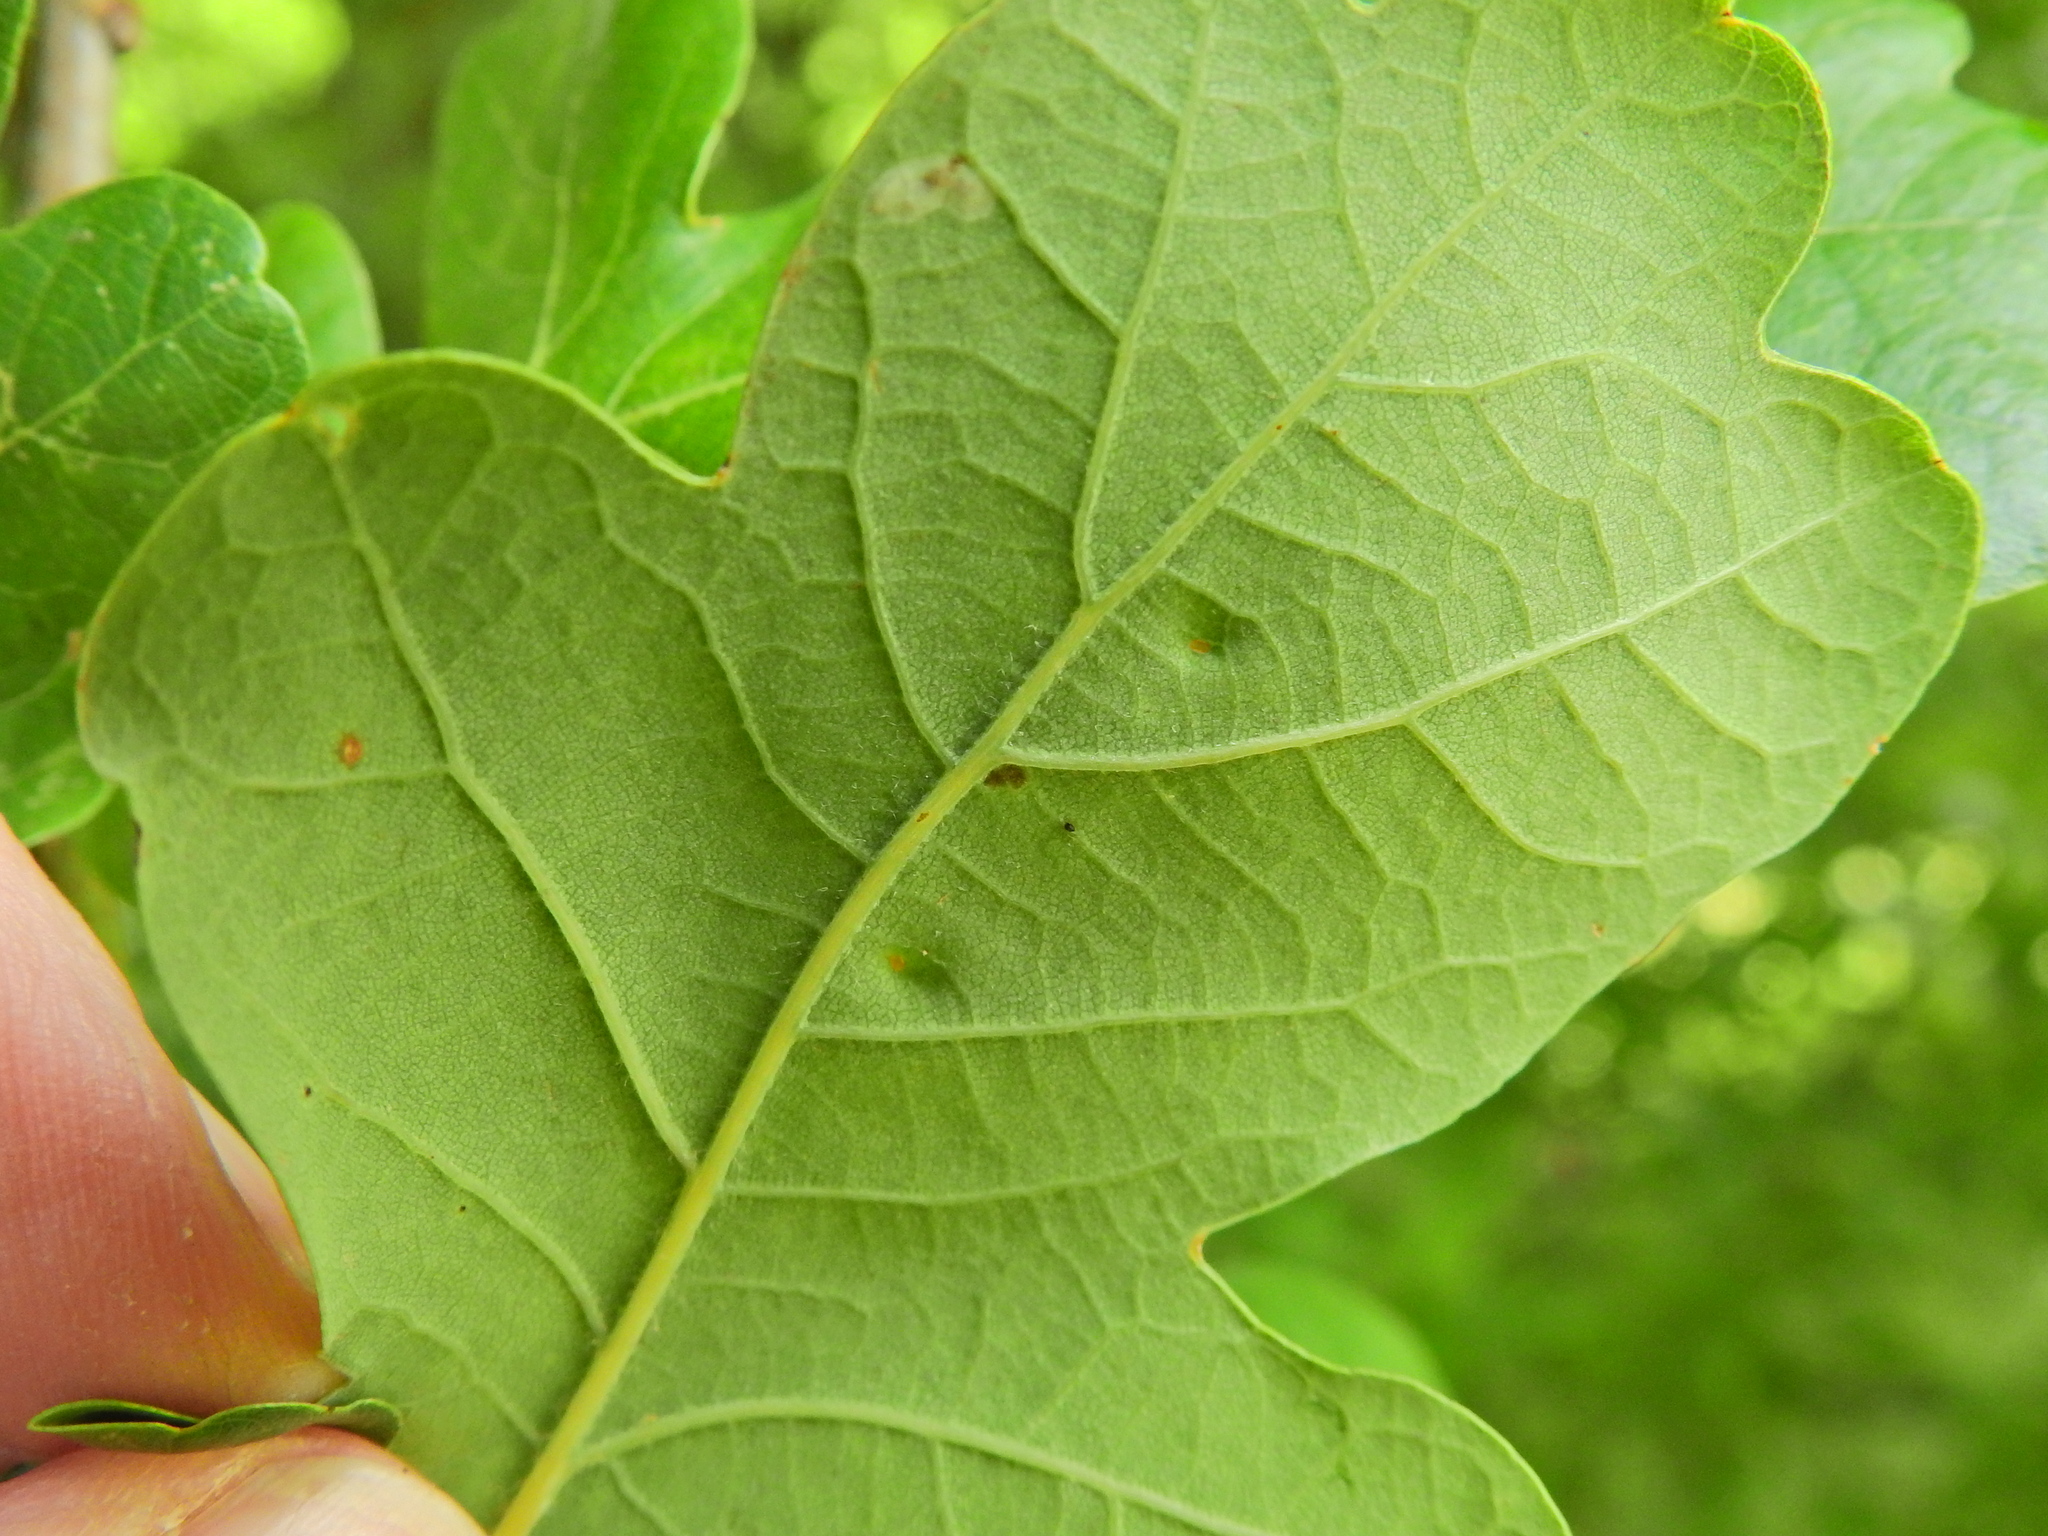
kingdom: Animalia
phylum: Arthropoda
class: Insecta
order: Hemiptera
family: Triozidae
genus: Trioza
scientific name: Trioza remota
